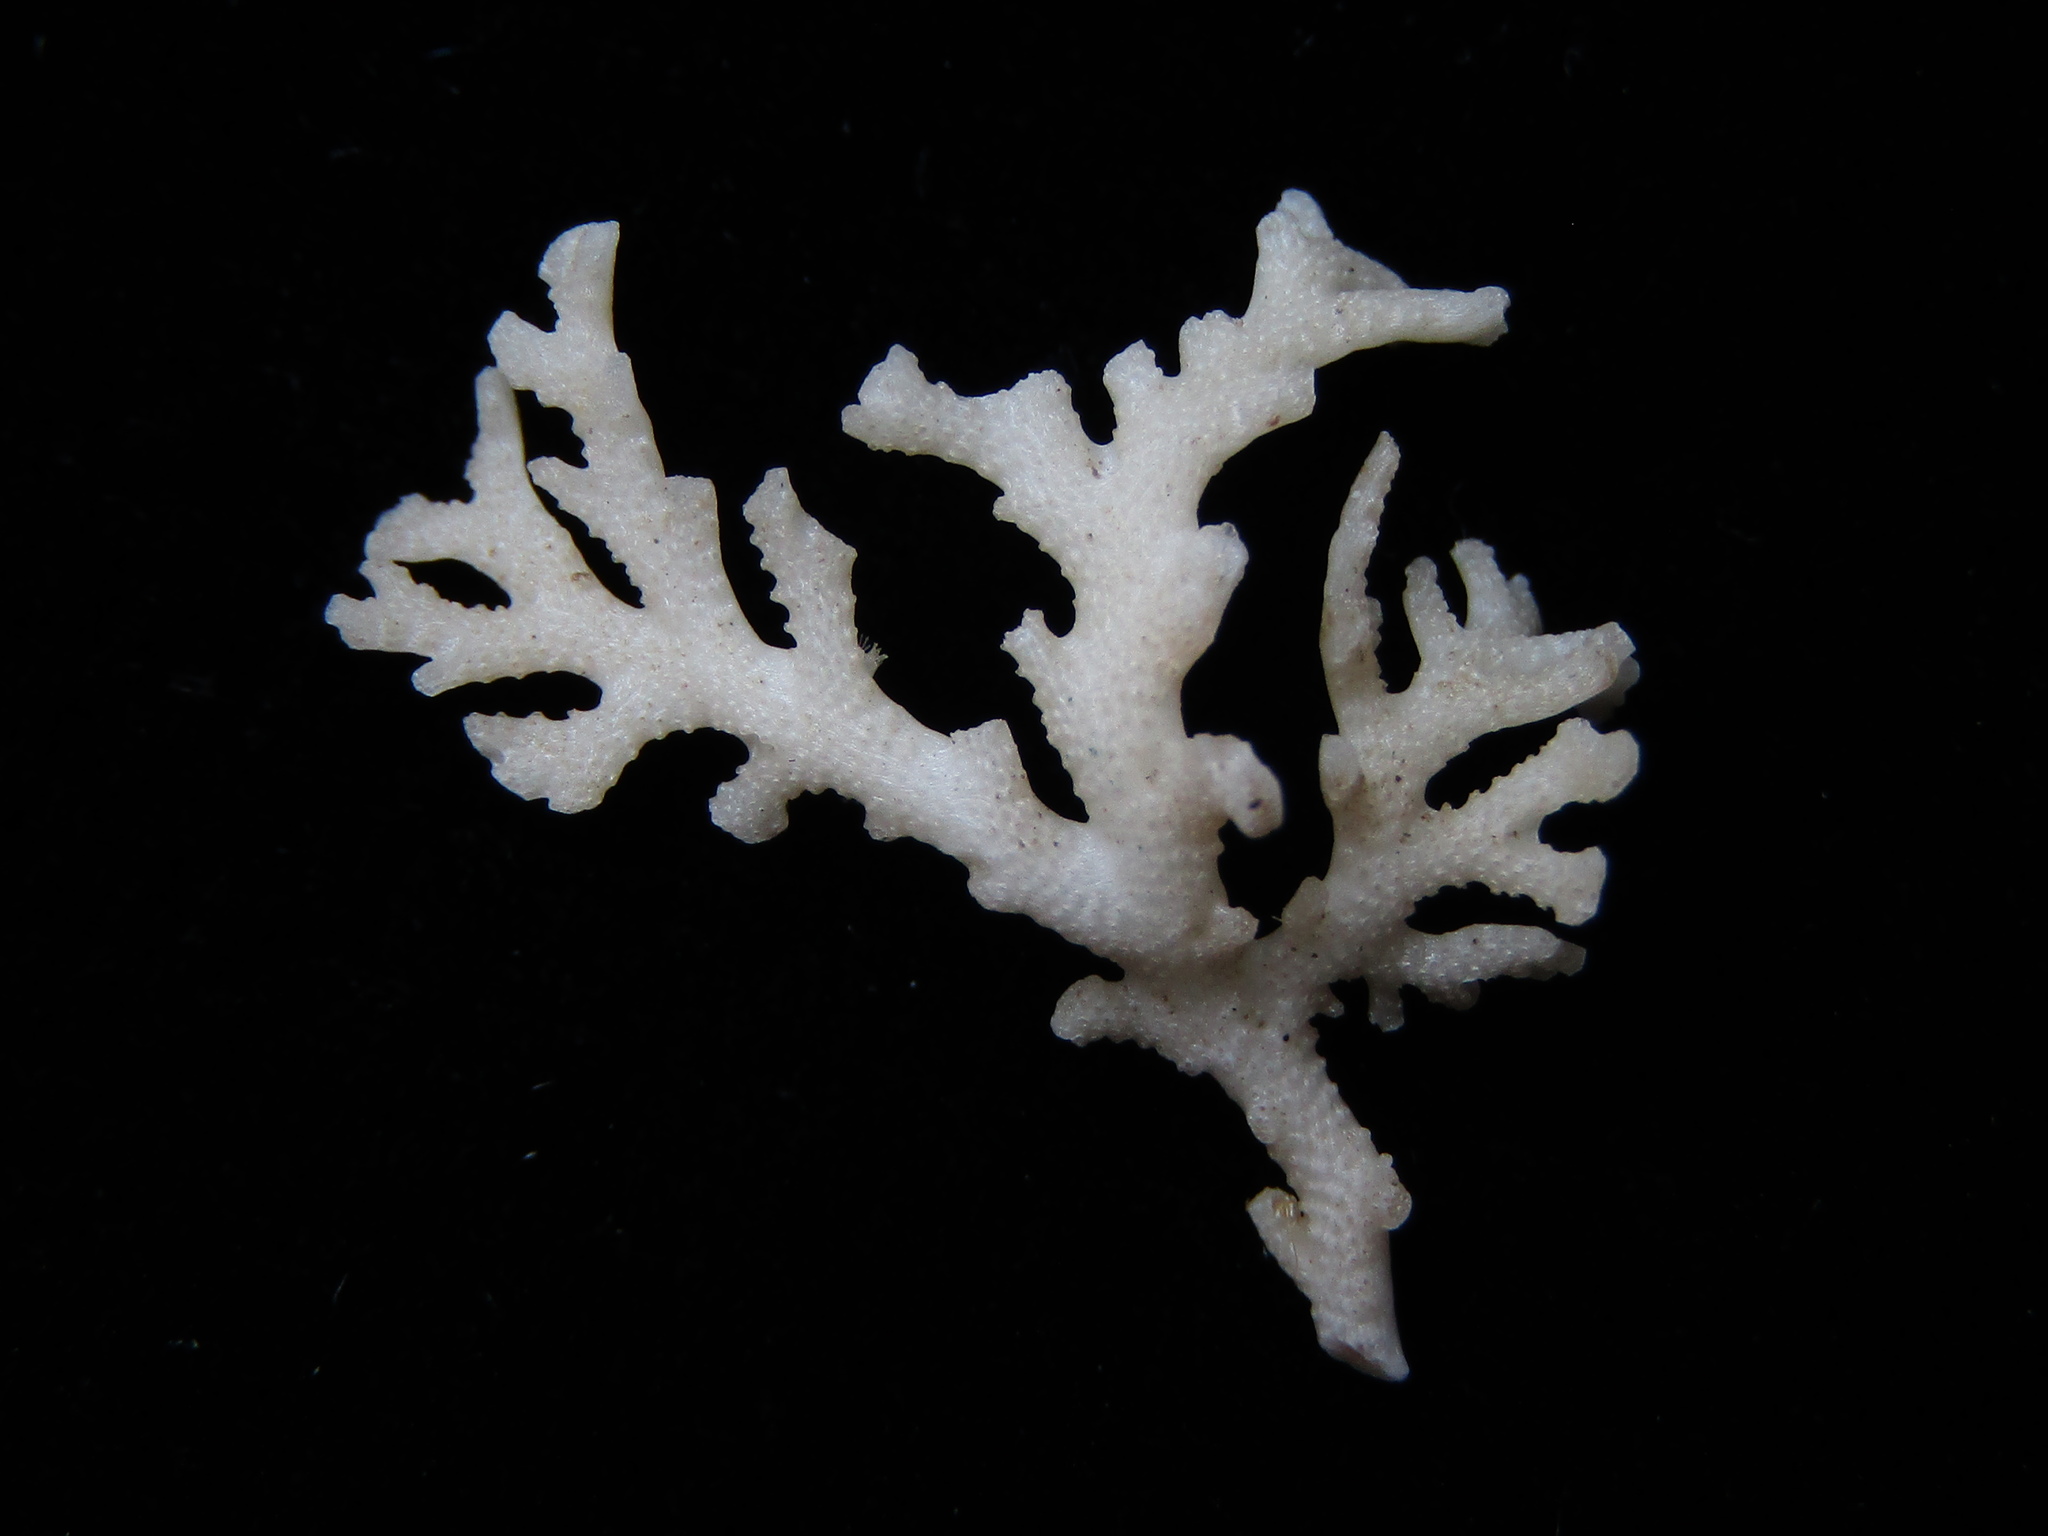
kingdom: Animalia
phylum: Bryozoa
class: Stenolaemata
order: Cyclostomatida
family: Horneridae
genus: Hornera
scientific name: Hornera robusta
